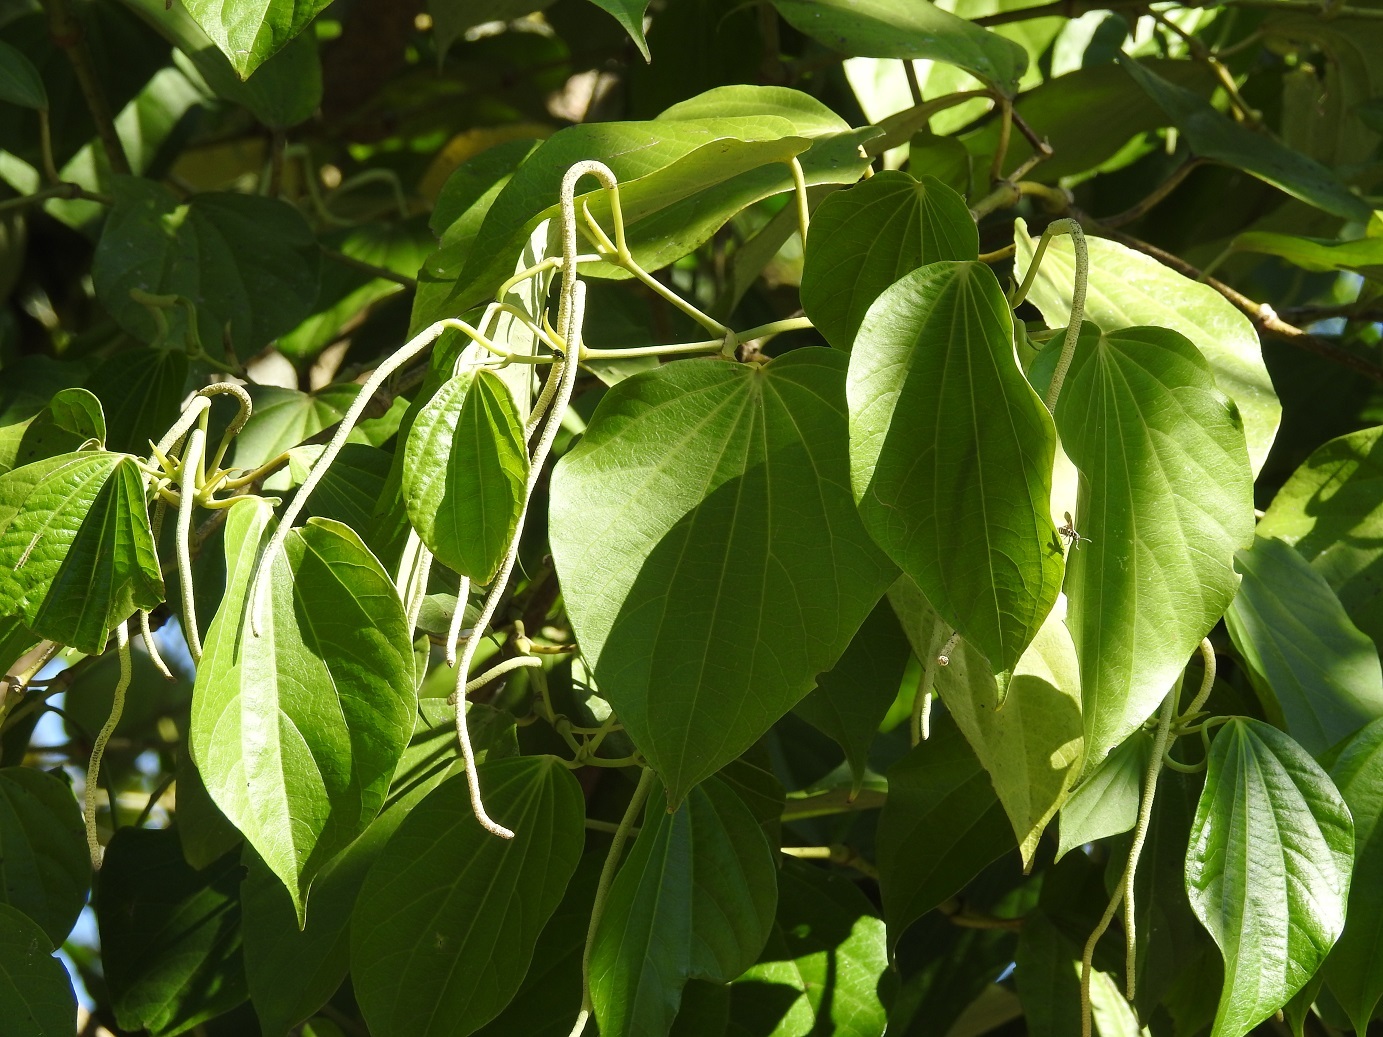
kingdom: Plantae
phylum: Tracheophyta
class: Magnoliopsida
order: Piperales
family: Piperaceae
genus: Piper
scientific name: Piper marginatum
